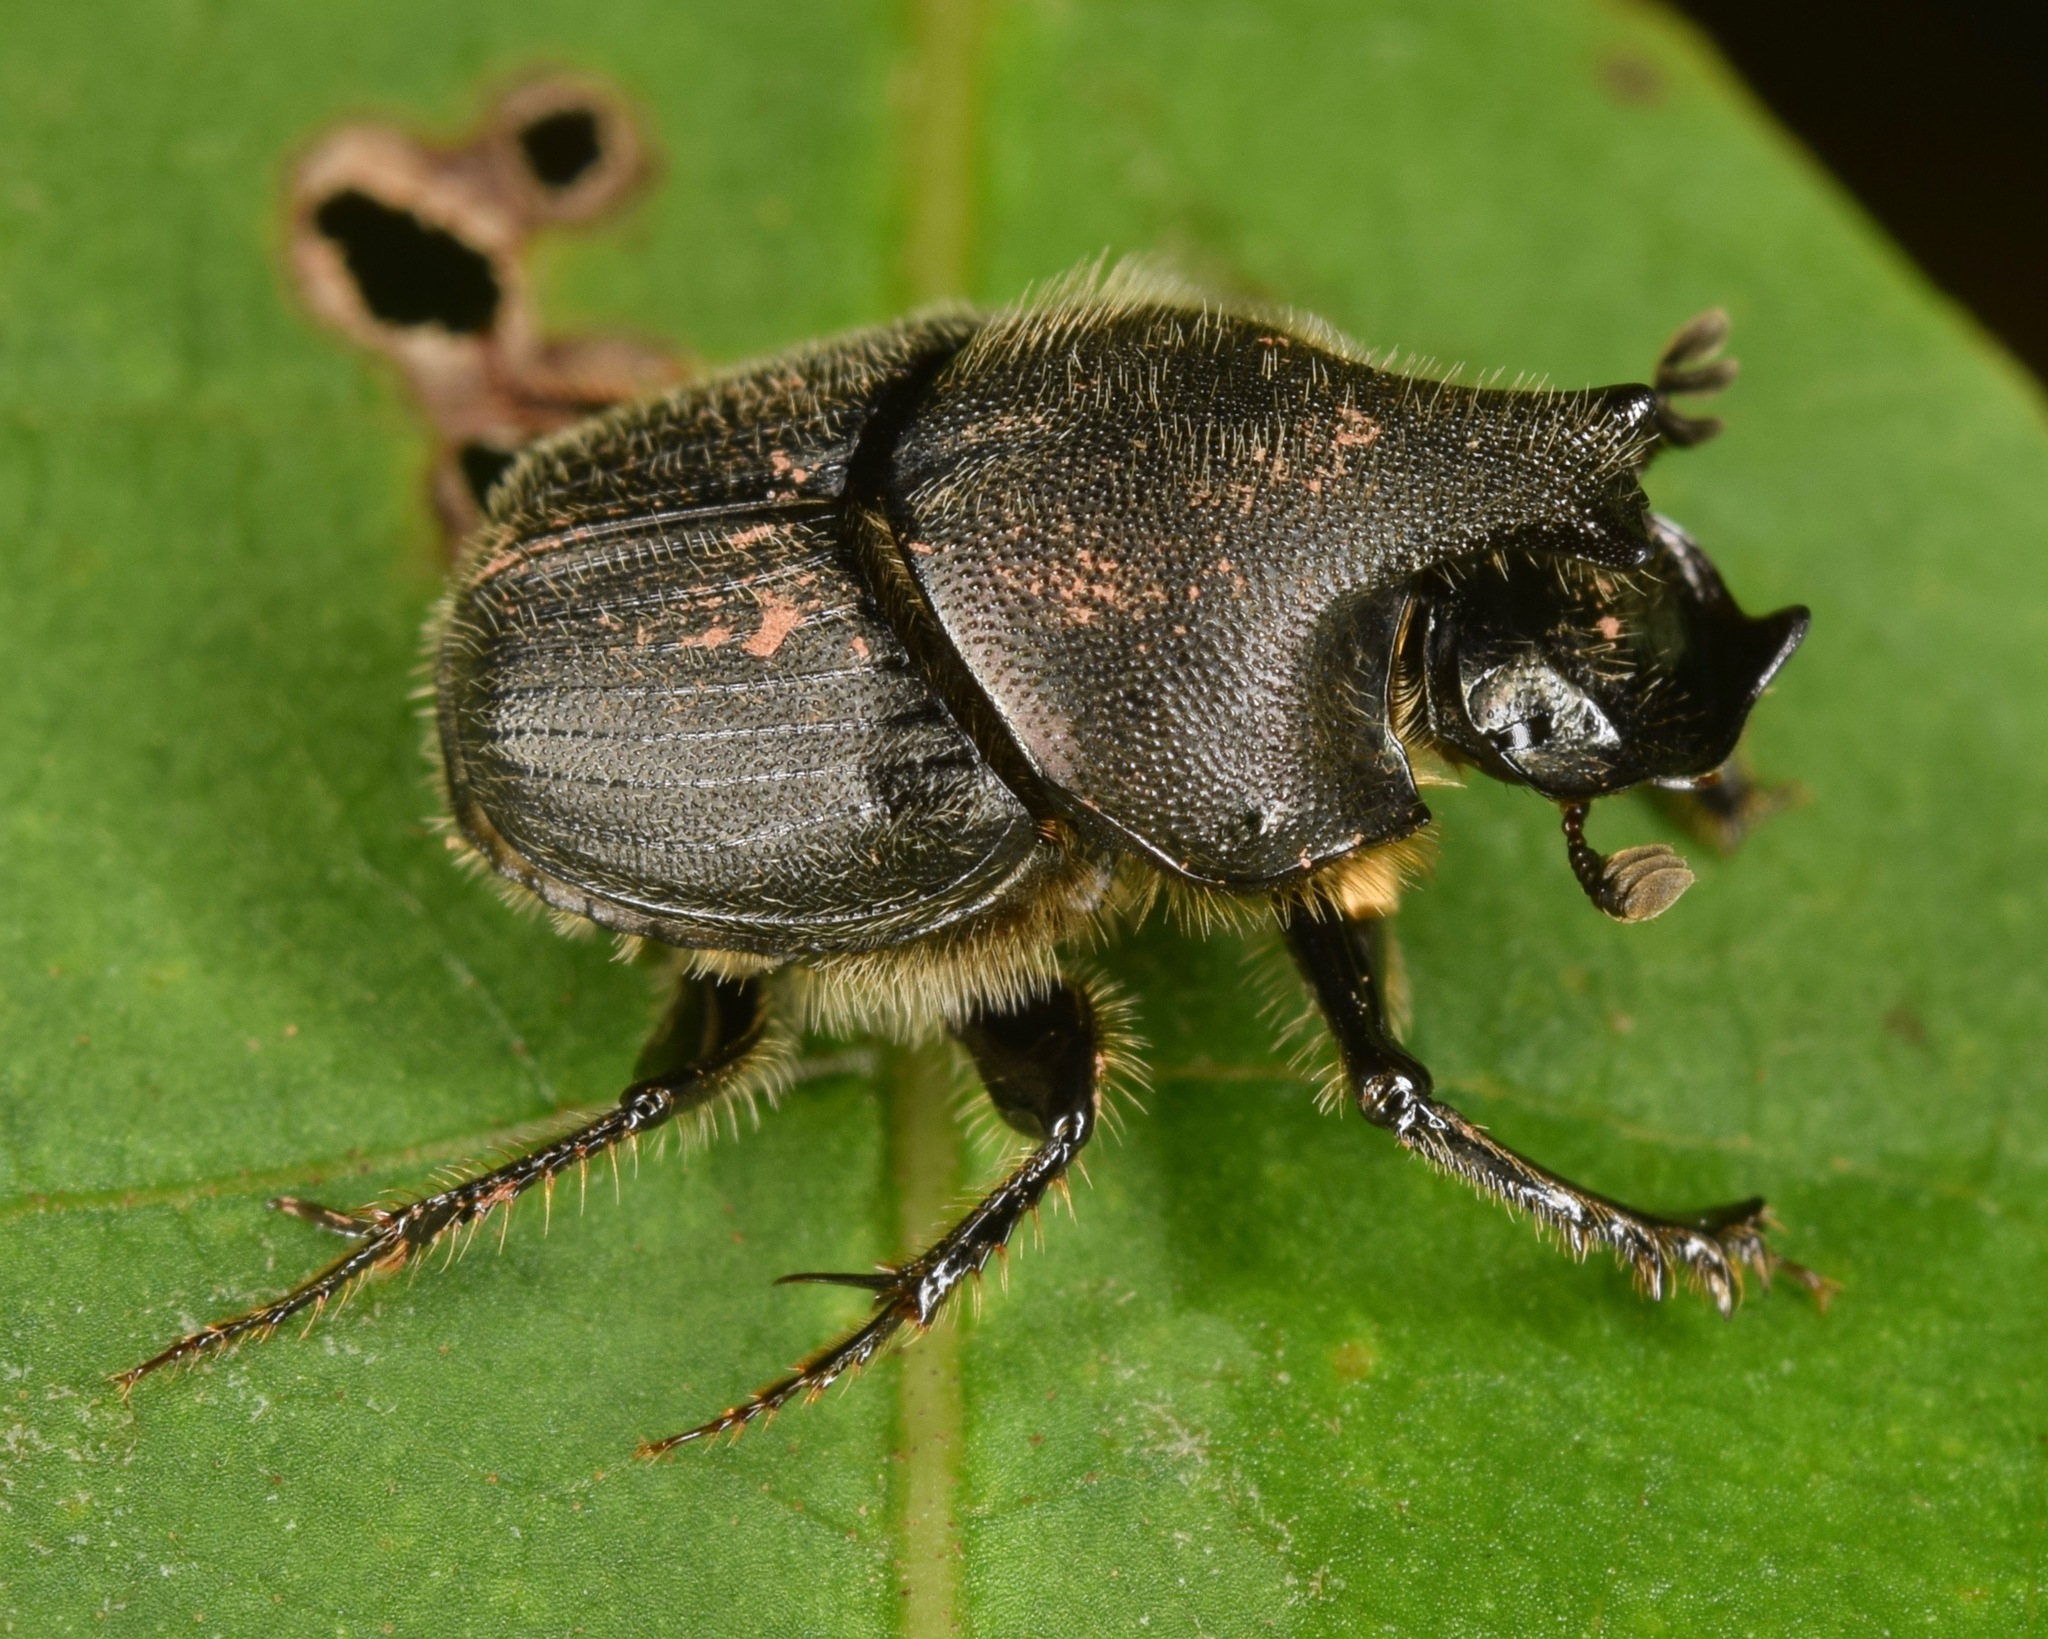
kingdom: Animalia
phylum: Arthropoda
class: Insecta
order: Coleoptera
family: Scarabaeidae
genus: Onthophagus
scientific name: Onthophagus hecate
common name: Scooped scarab
